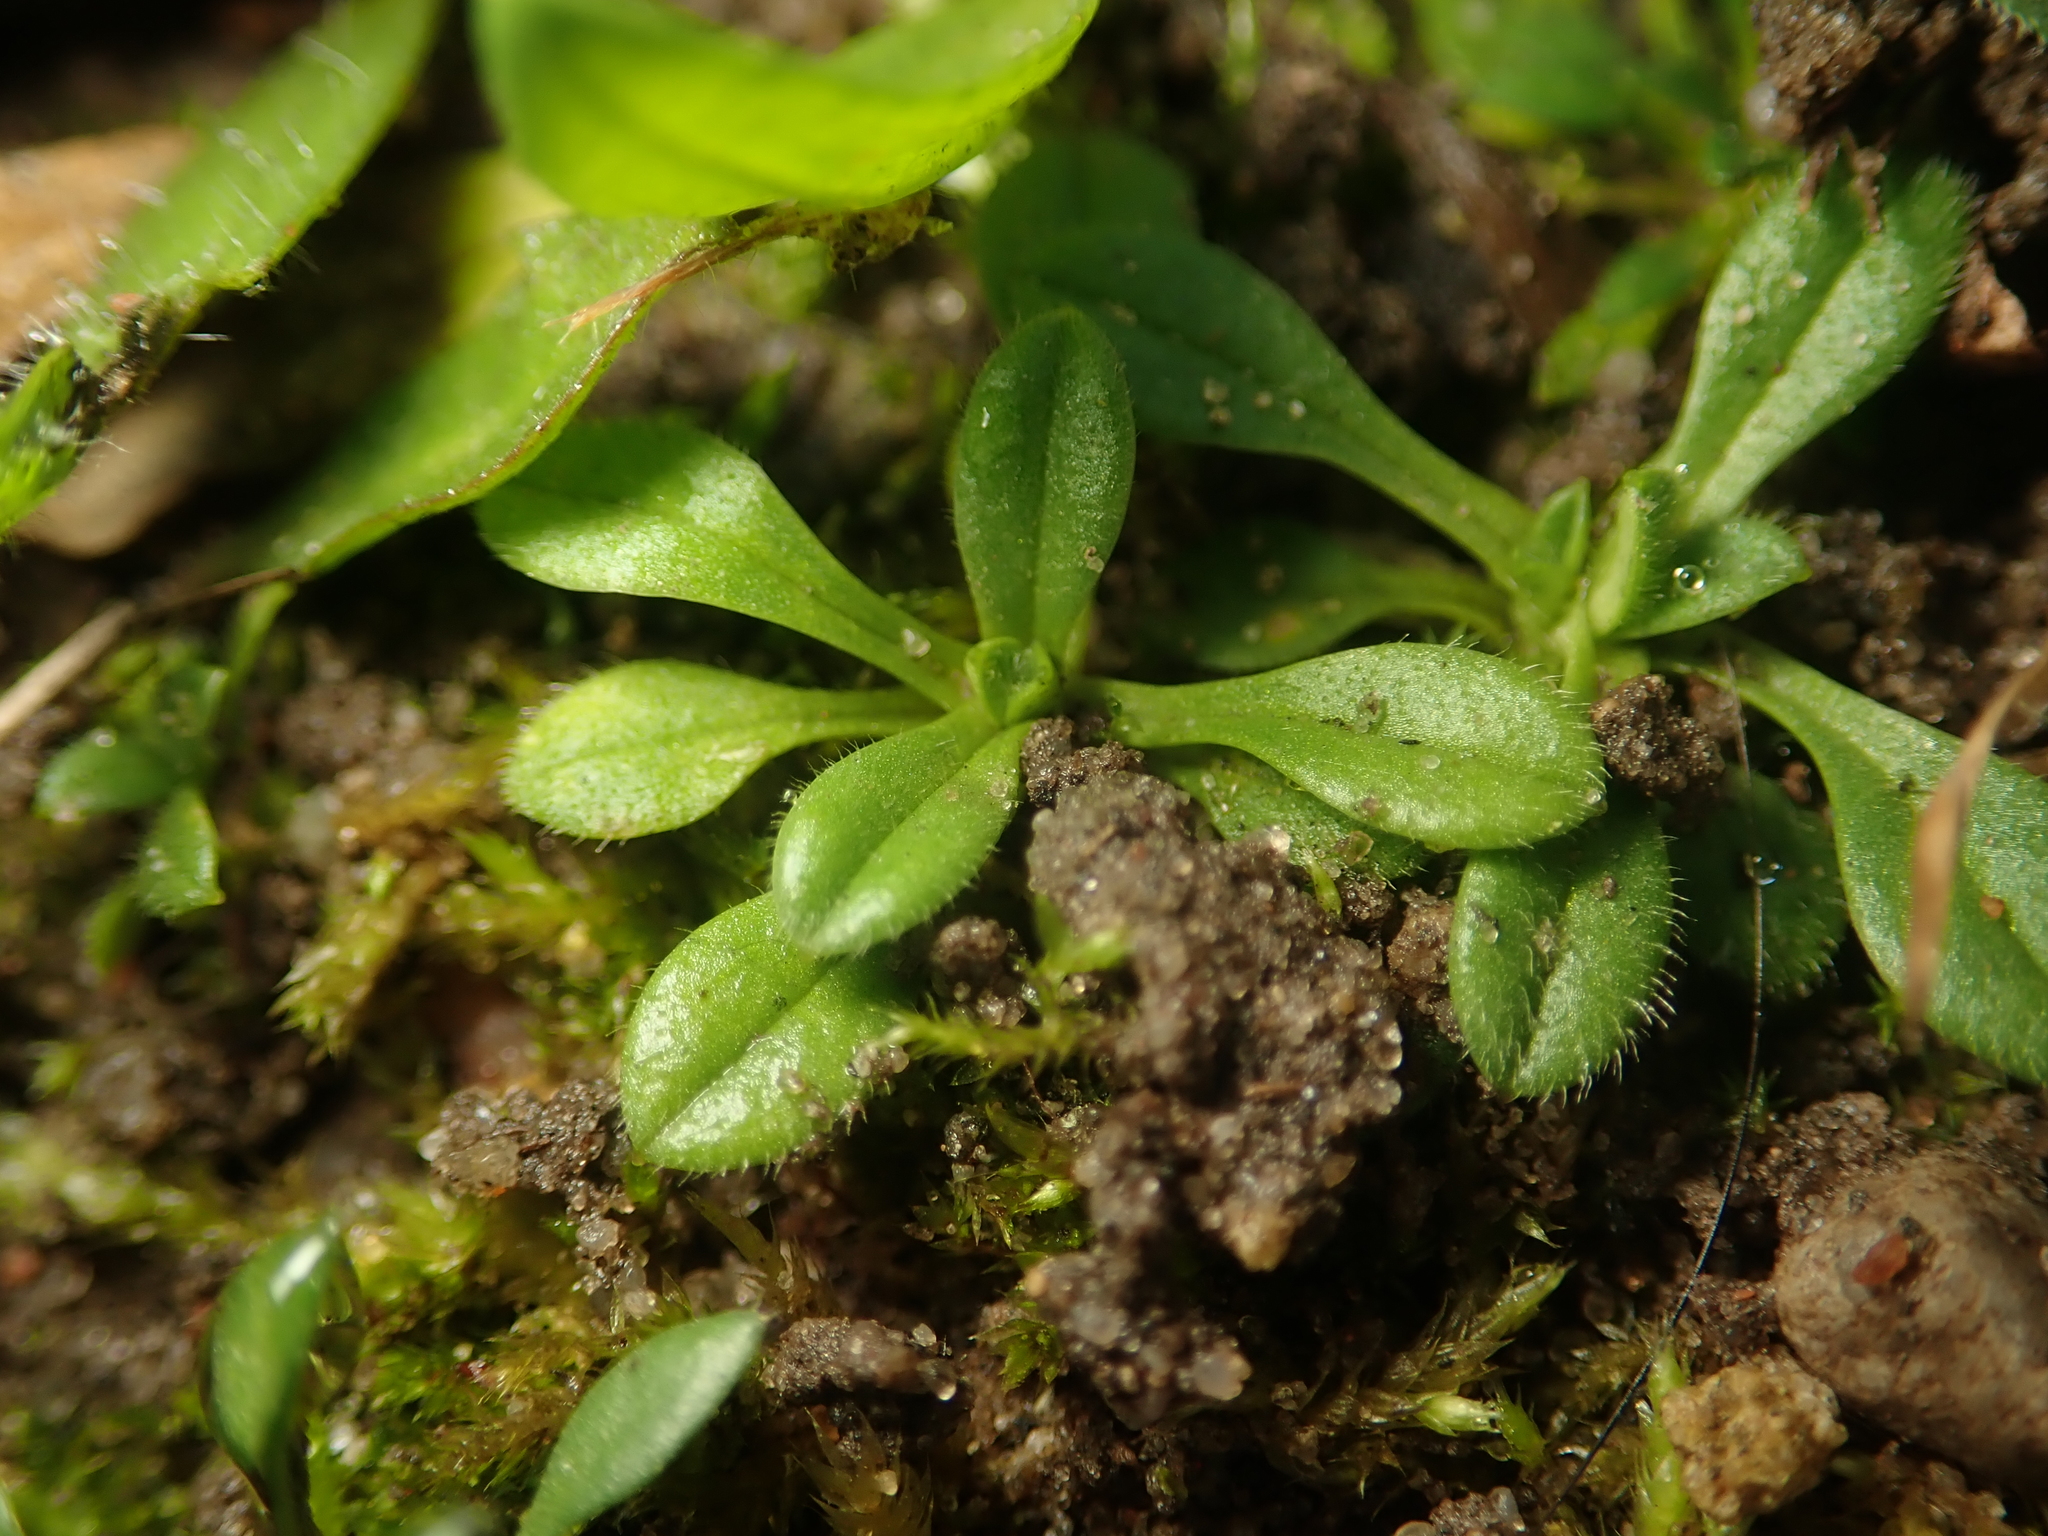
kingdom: Plantae
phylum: Tracheophyta
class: Magnoliopsida
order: Brassicales
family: Brassicaceae
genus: Draba
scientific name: Draba verna
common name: Spring draba
